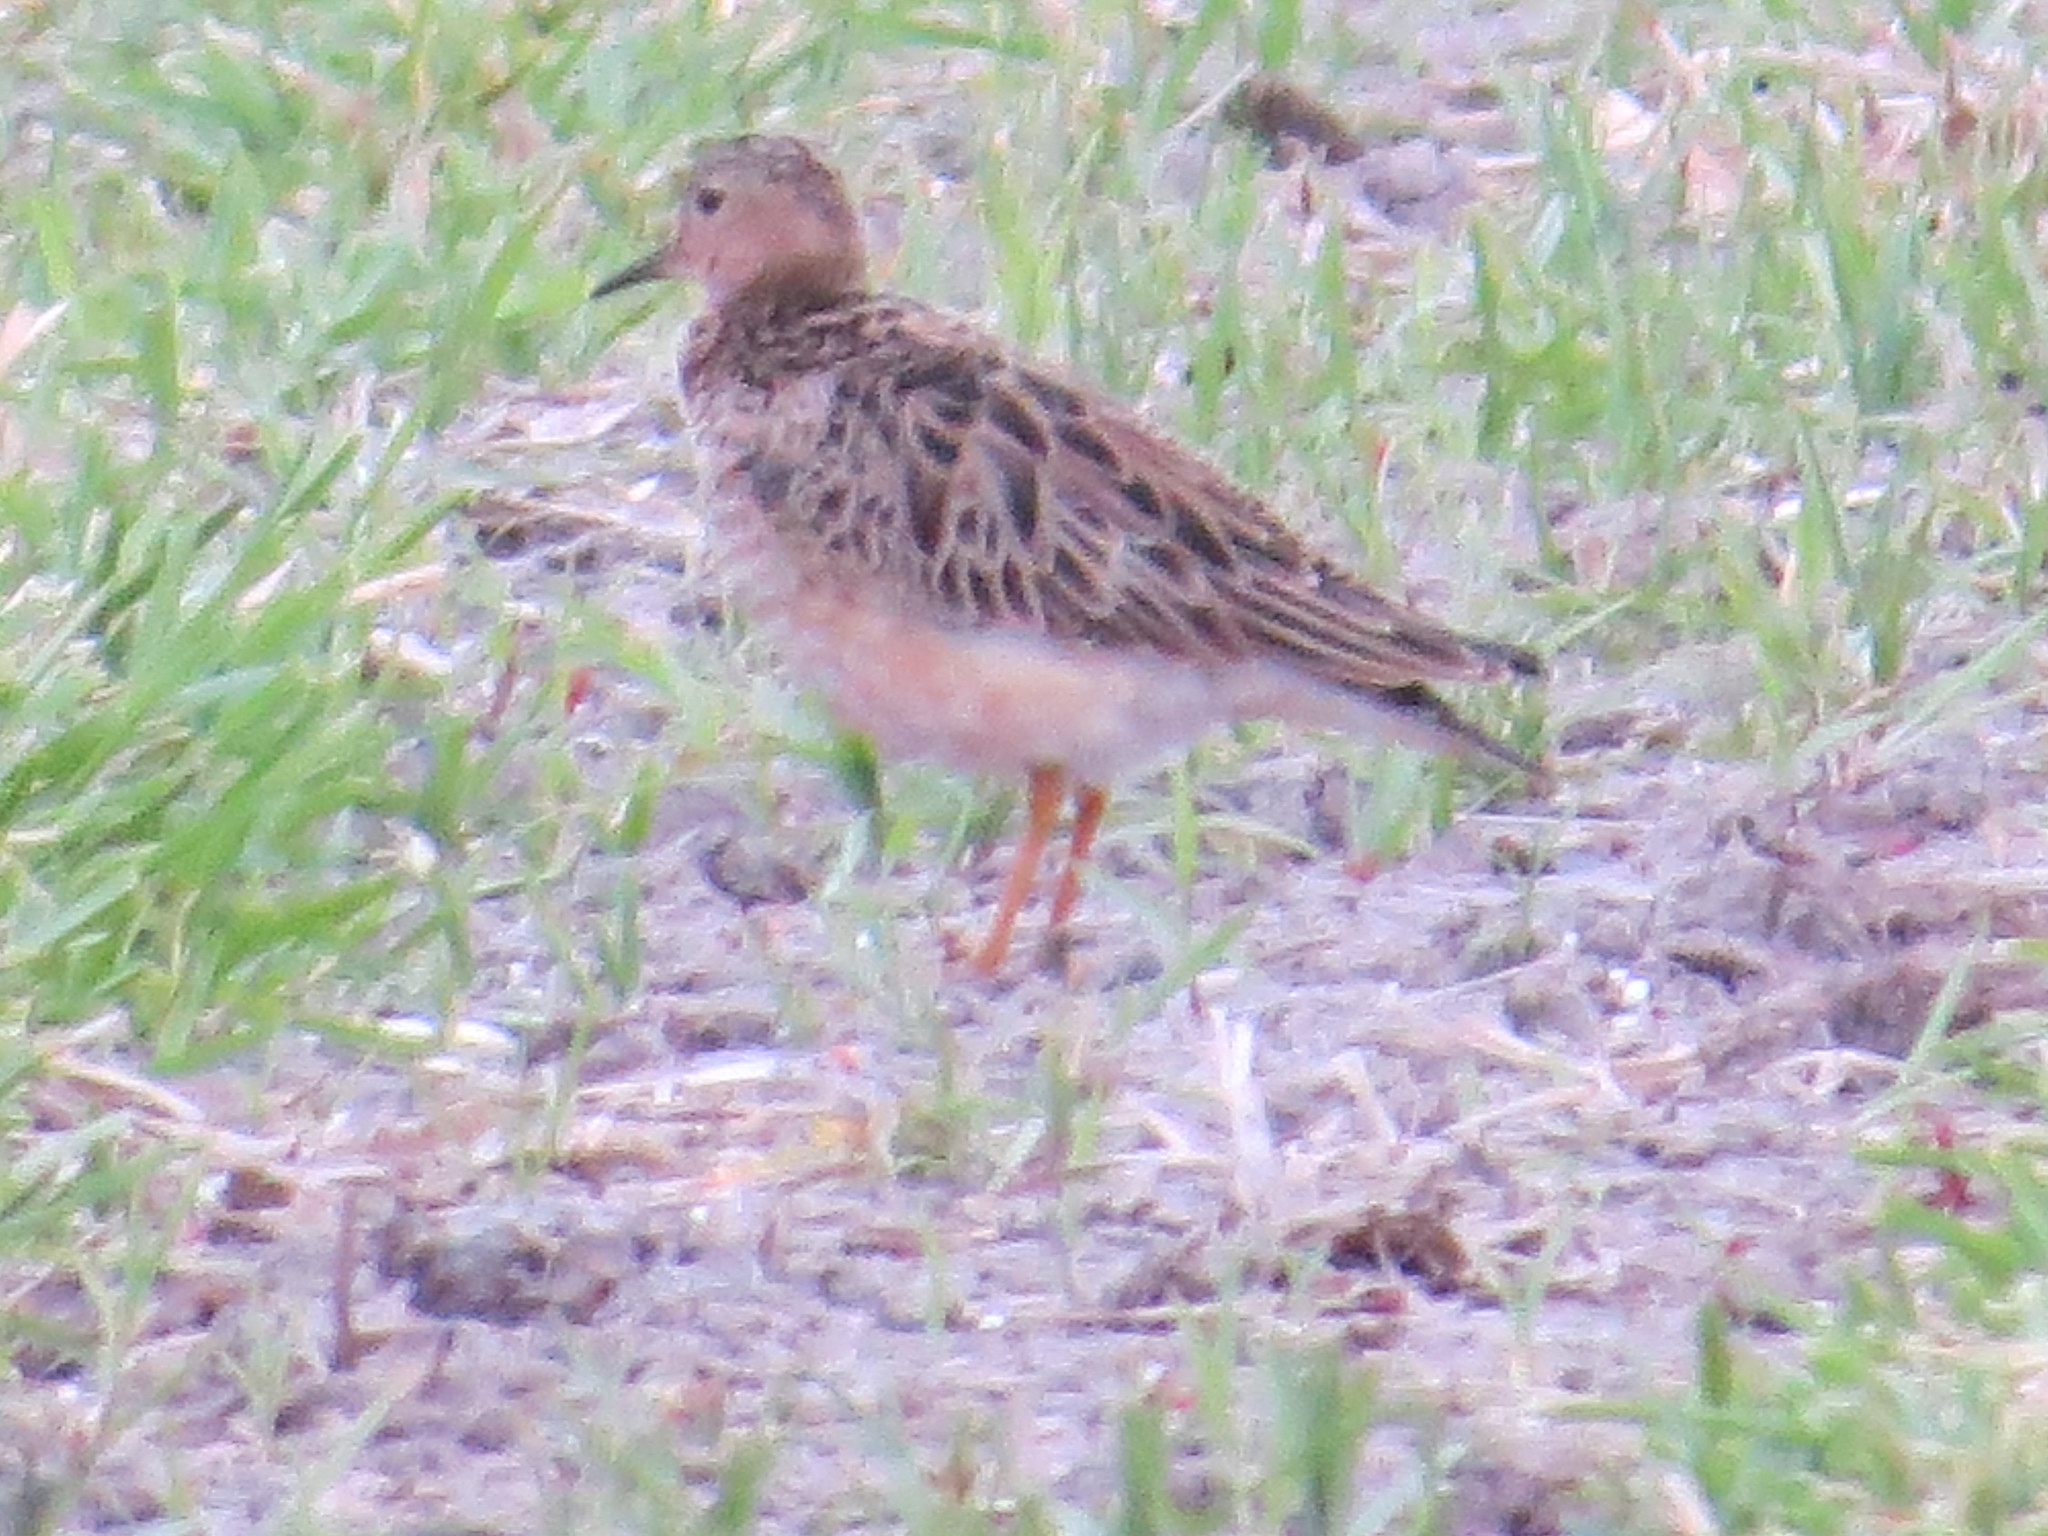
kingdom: Animalia
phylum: Chordata
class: Aves
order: Charadriiformes
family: Scolopacidae
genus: Calidris
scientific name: Calidris subruficollis
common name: Buff-breasted sandpiper
